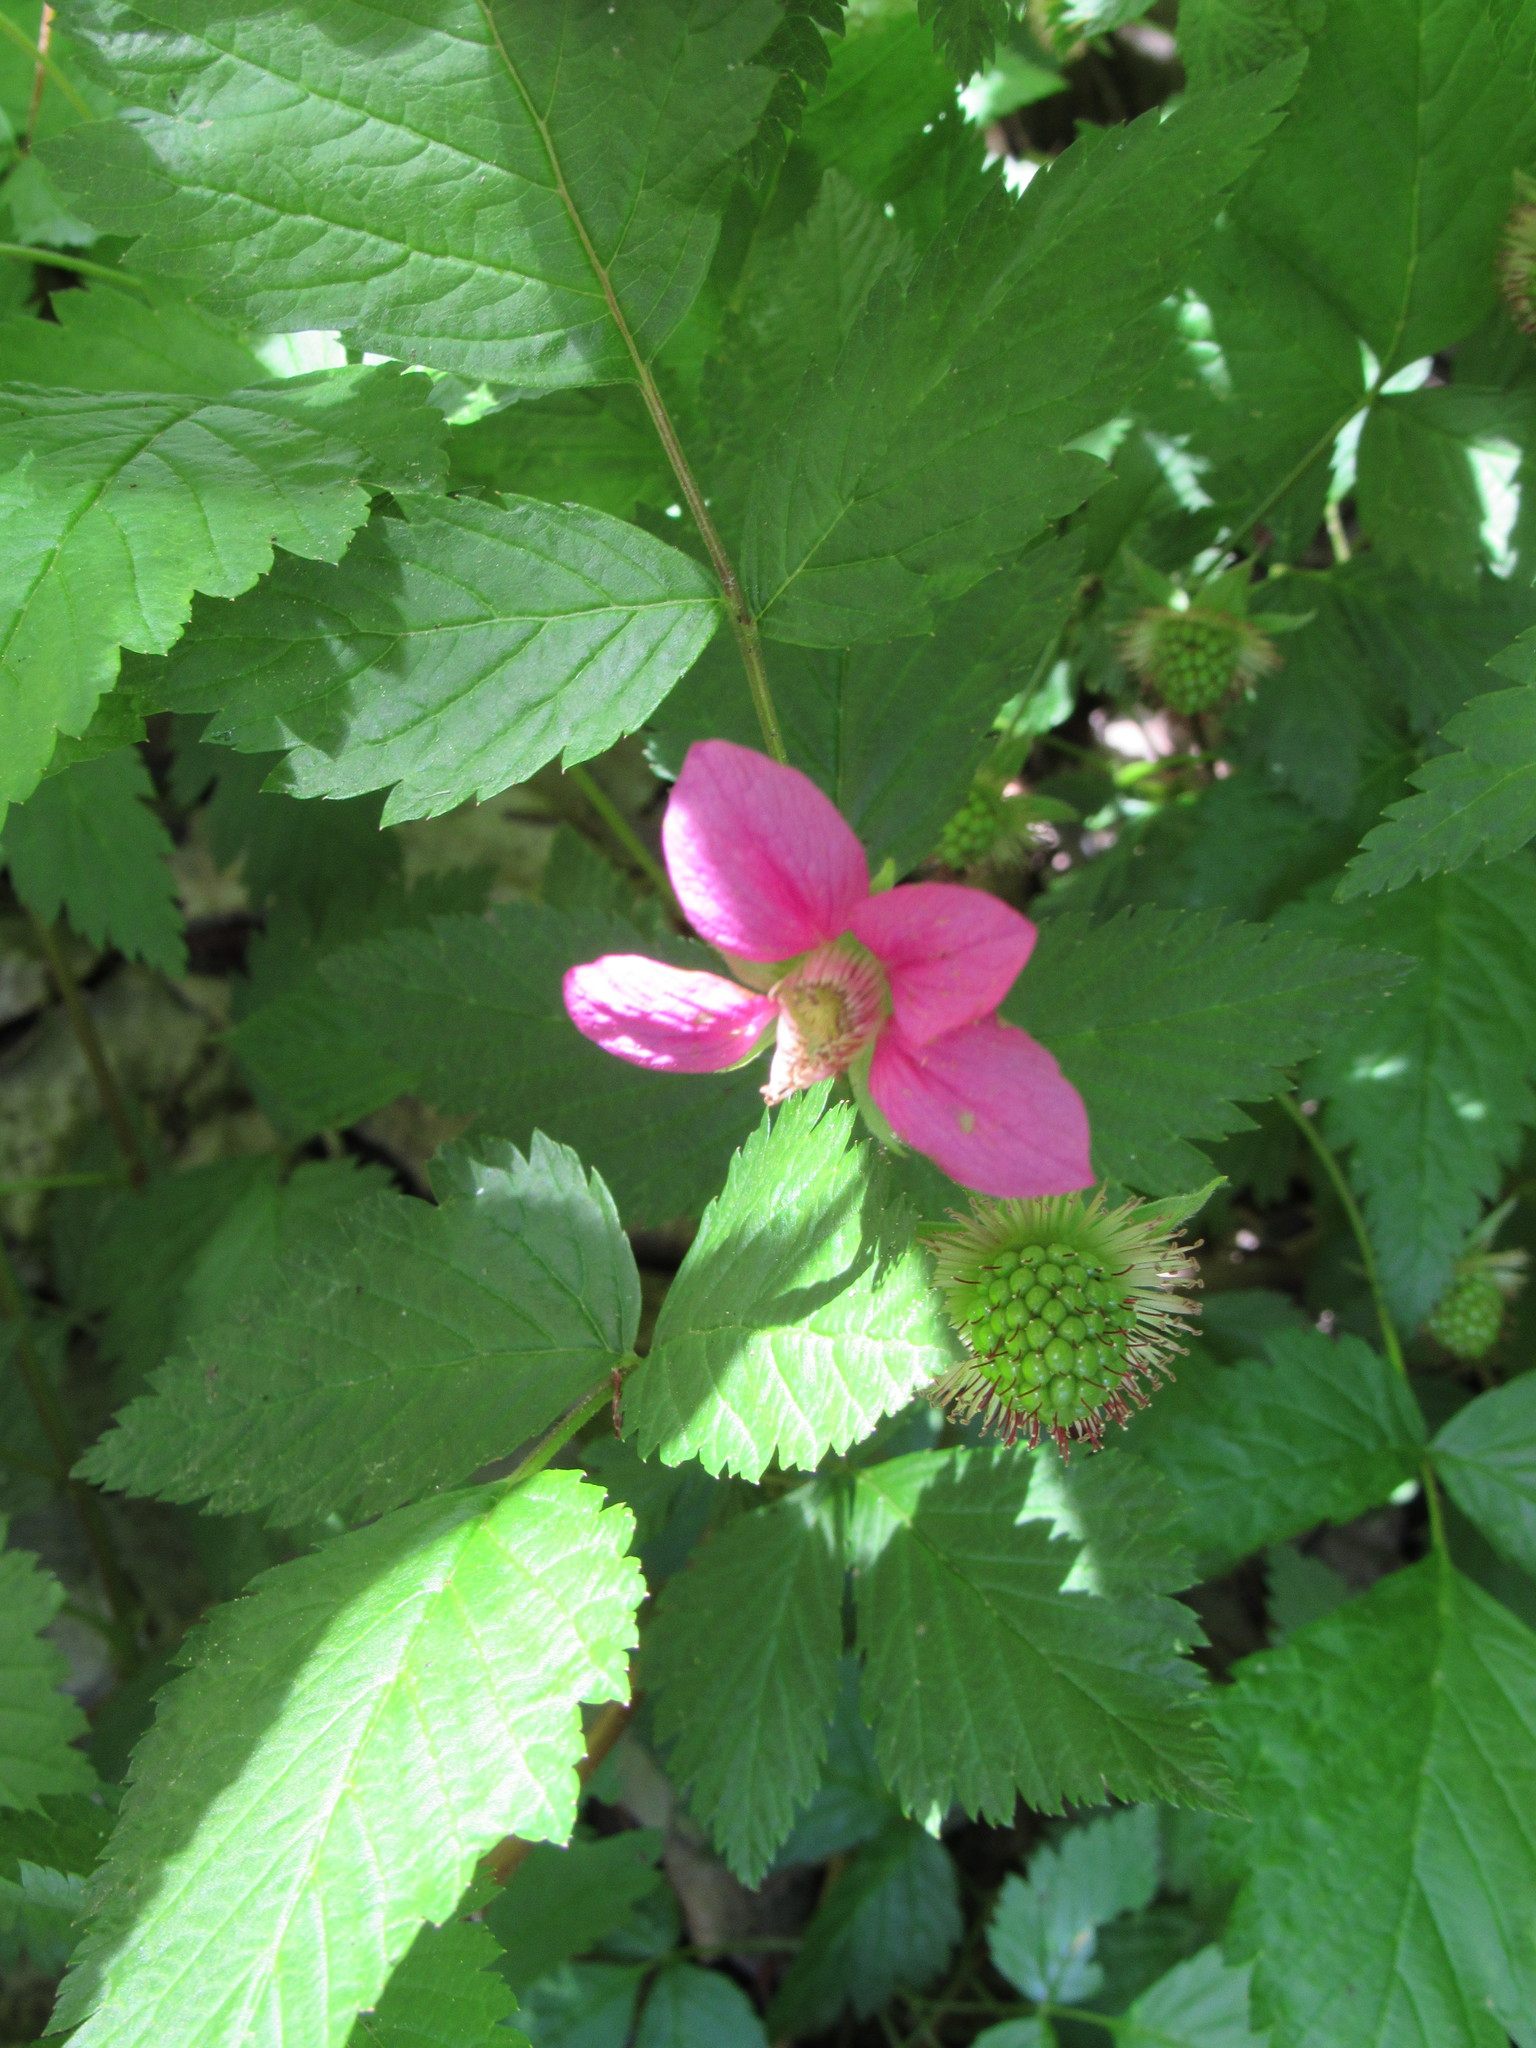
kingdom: Plantae
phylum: Tracheophyta
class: Magnoliopsida
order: Rosales
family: Rosaceae
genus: Rubus
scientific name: Rubus spectabilis
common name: Salmonberry
